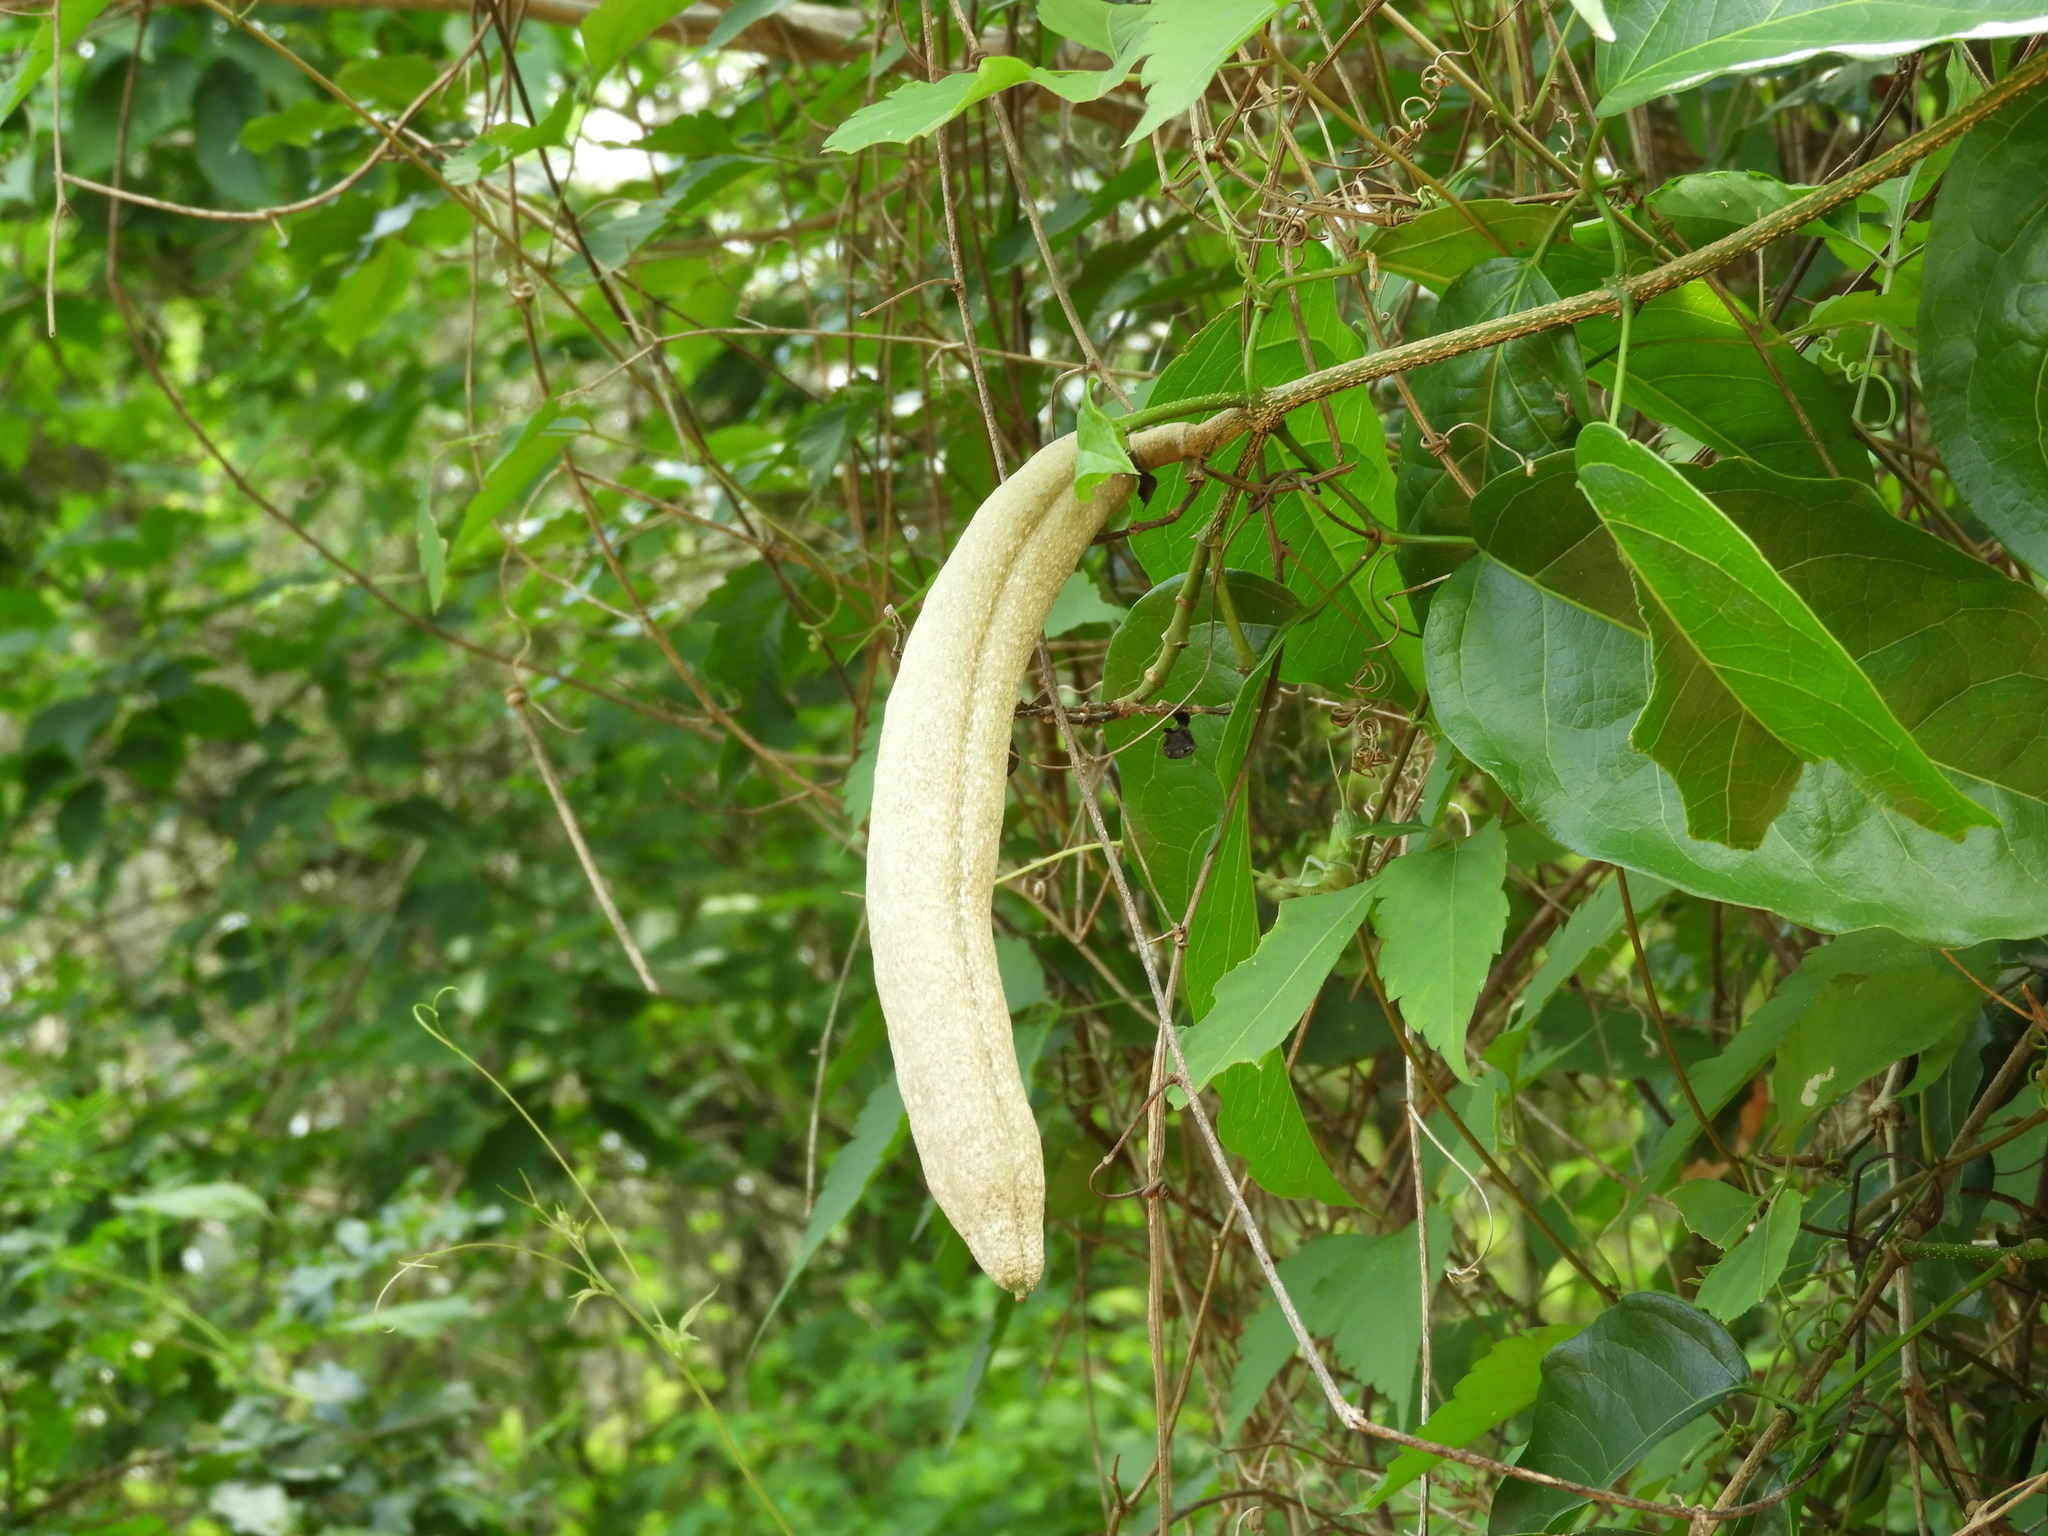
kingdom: Plantae
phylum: Tracheophyta
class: Magnoliopsida
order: Lamiales
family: Bignoniaceae
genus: Adenocalymma
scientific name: Adenocalymma inundatum
